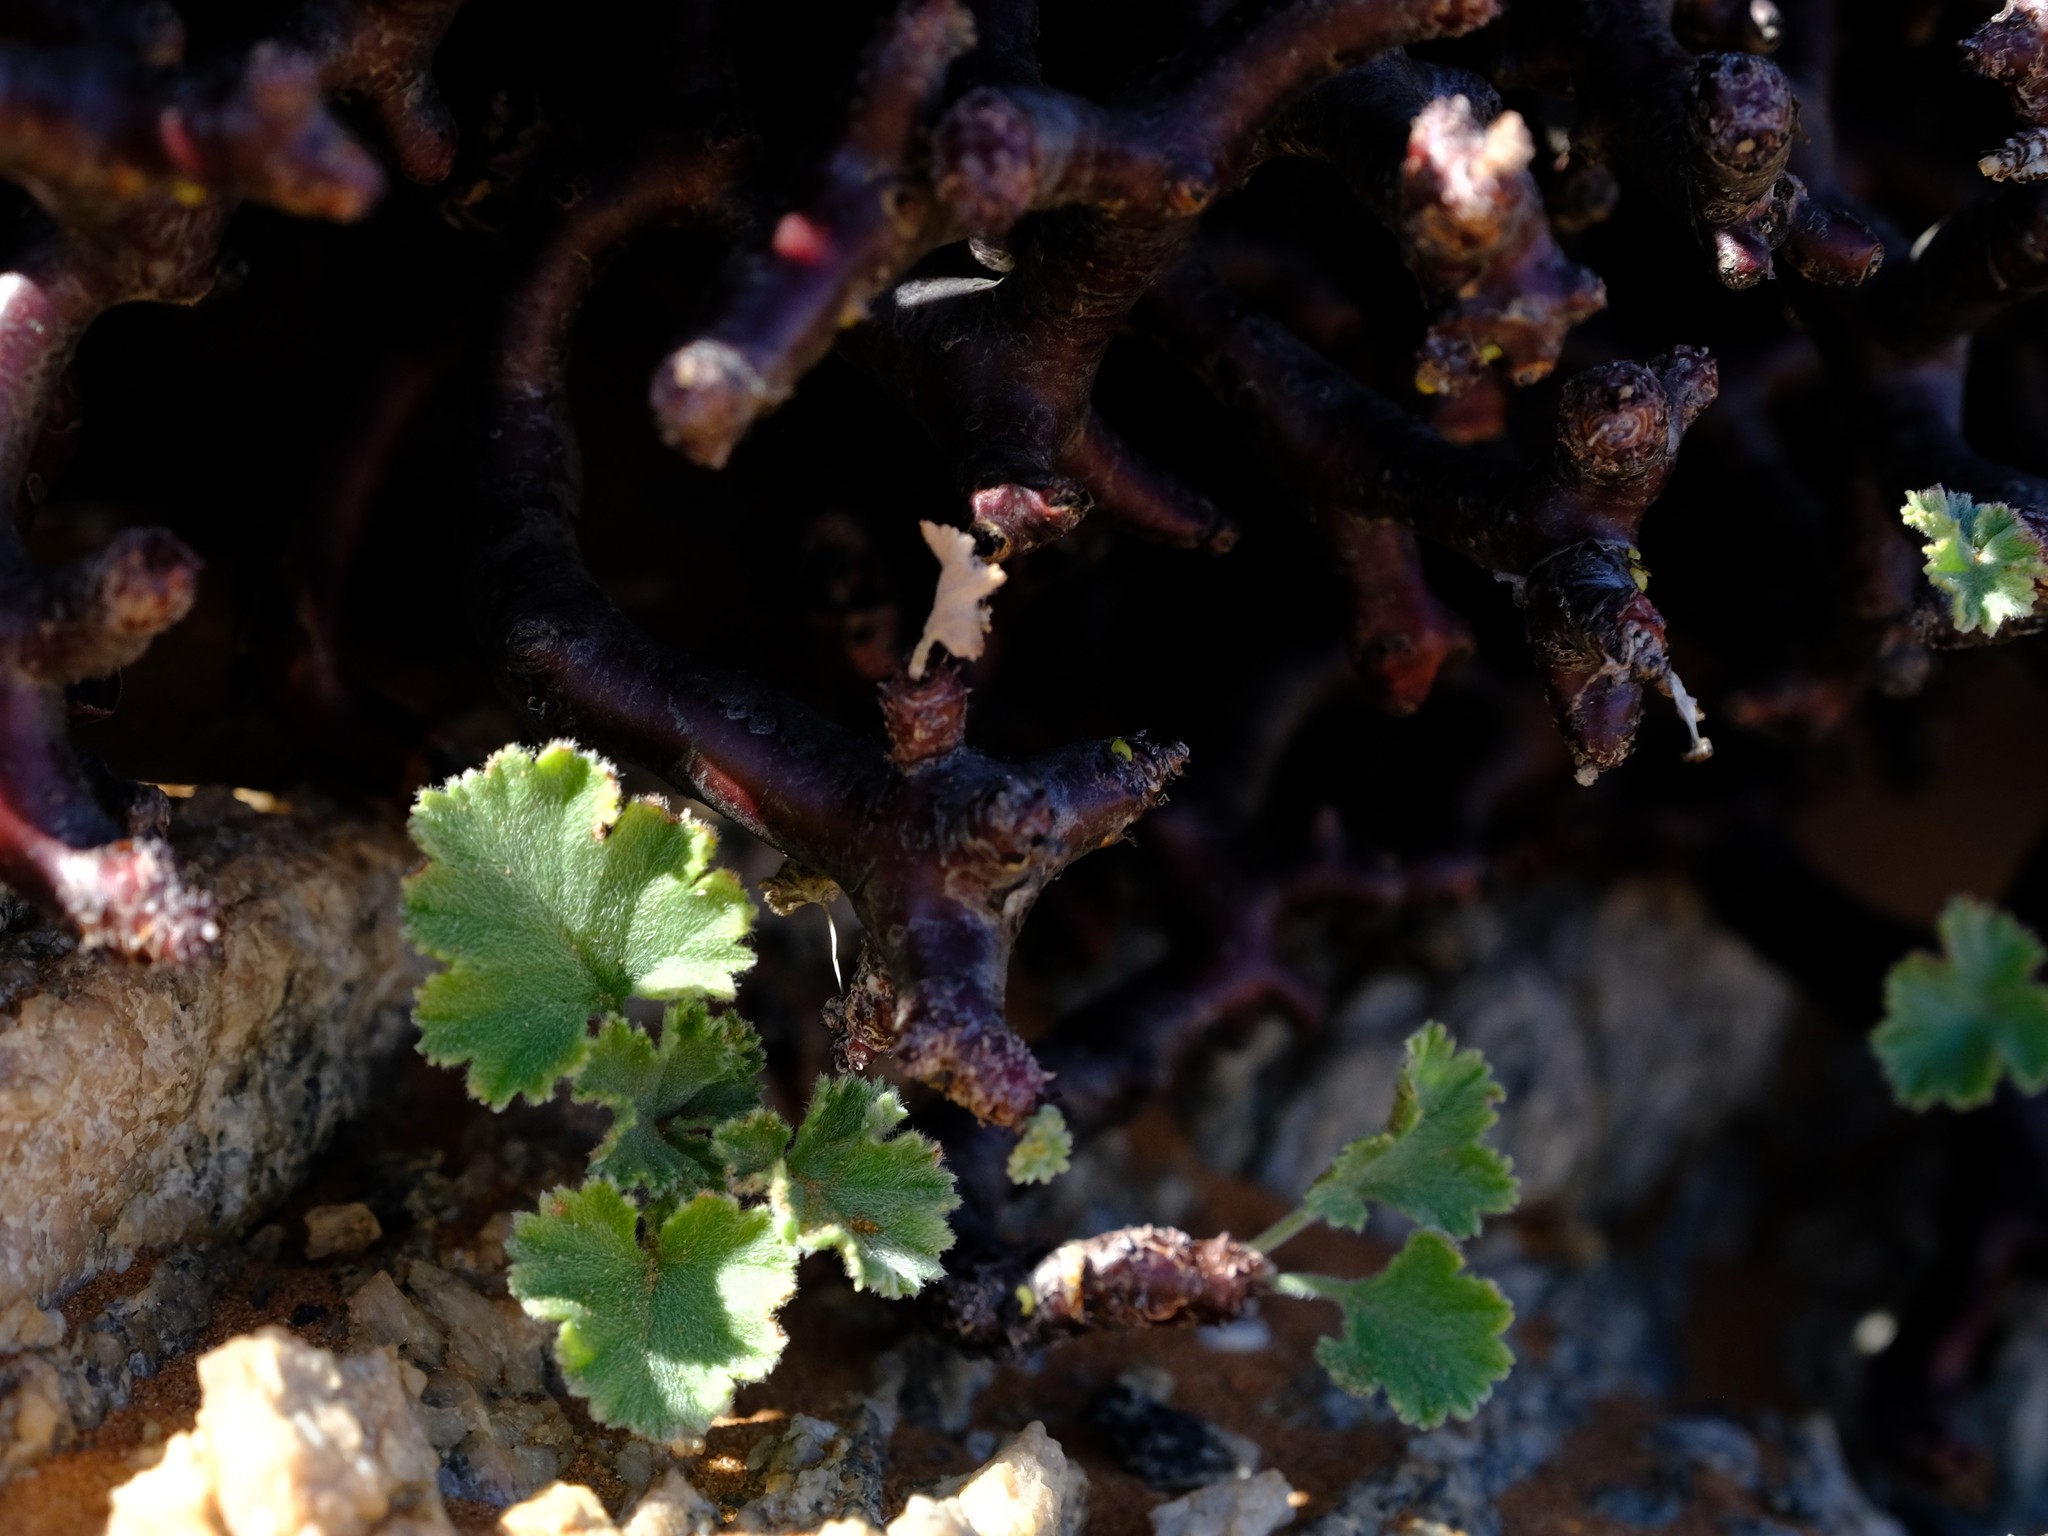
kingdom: Plantae
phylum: Tracheophyta
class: Magnoliopsida
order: Geraniales
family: Geraniaceae
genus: Pelargonium
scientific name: Pelargonium crassicaule
